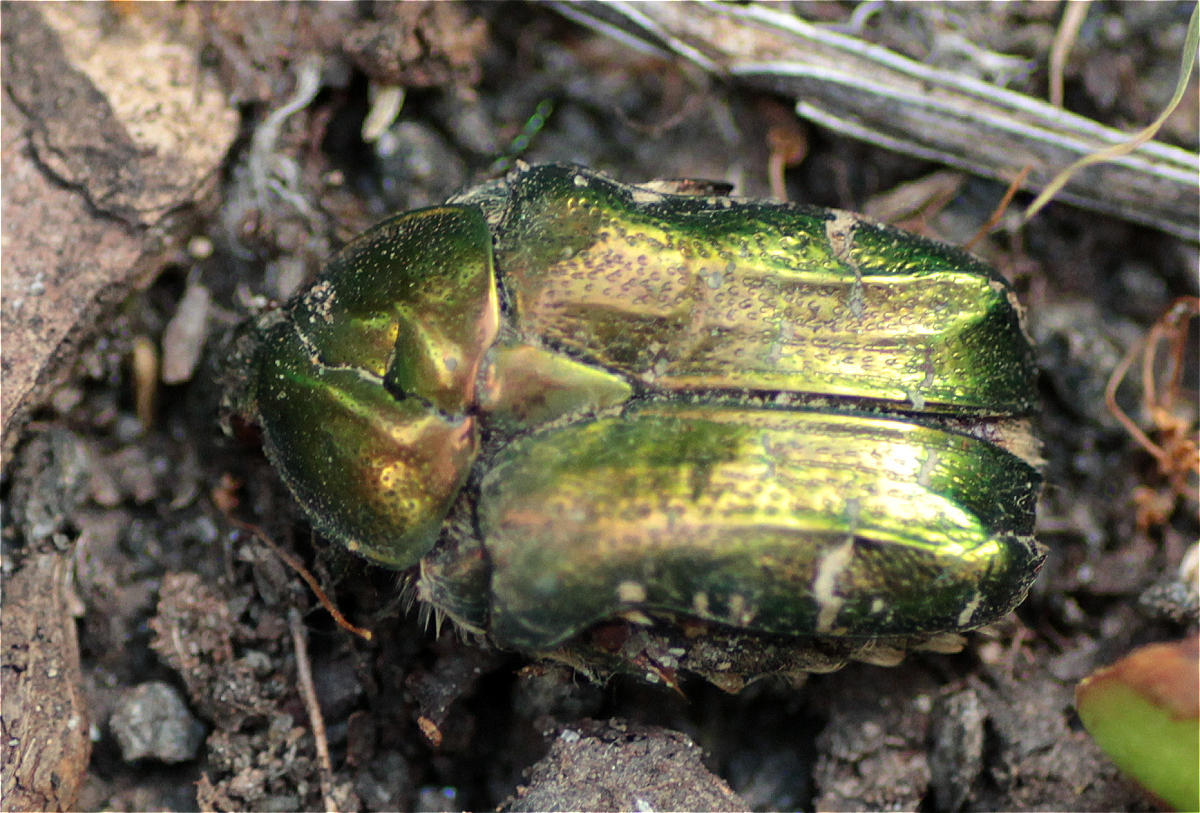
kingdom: Animalia
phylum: Arthropoda
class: Insecta
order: Coleoptera
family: Scarabaeidae
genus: Cetonia
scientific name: Cetonia aurata
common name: Rose chafer
